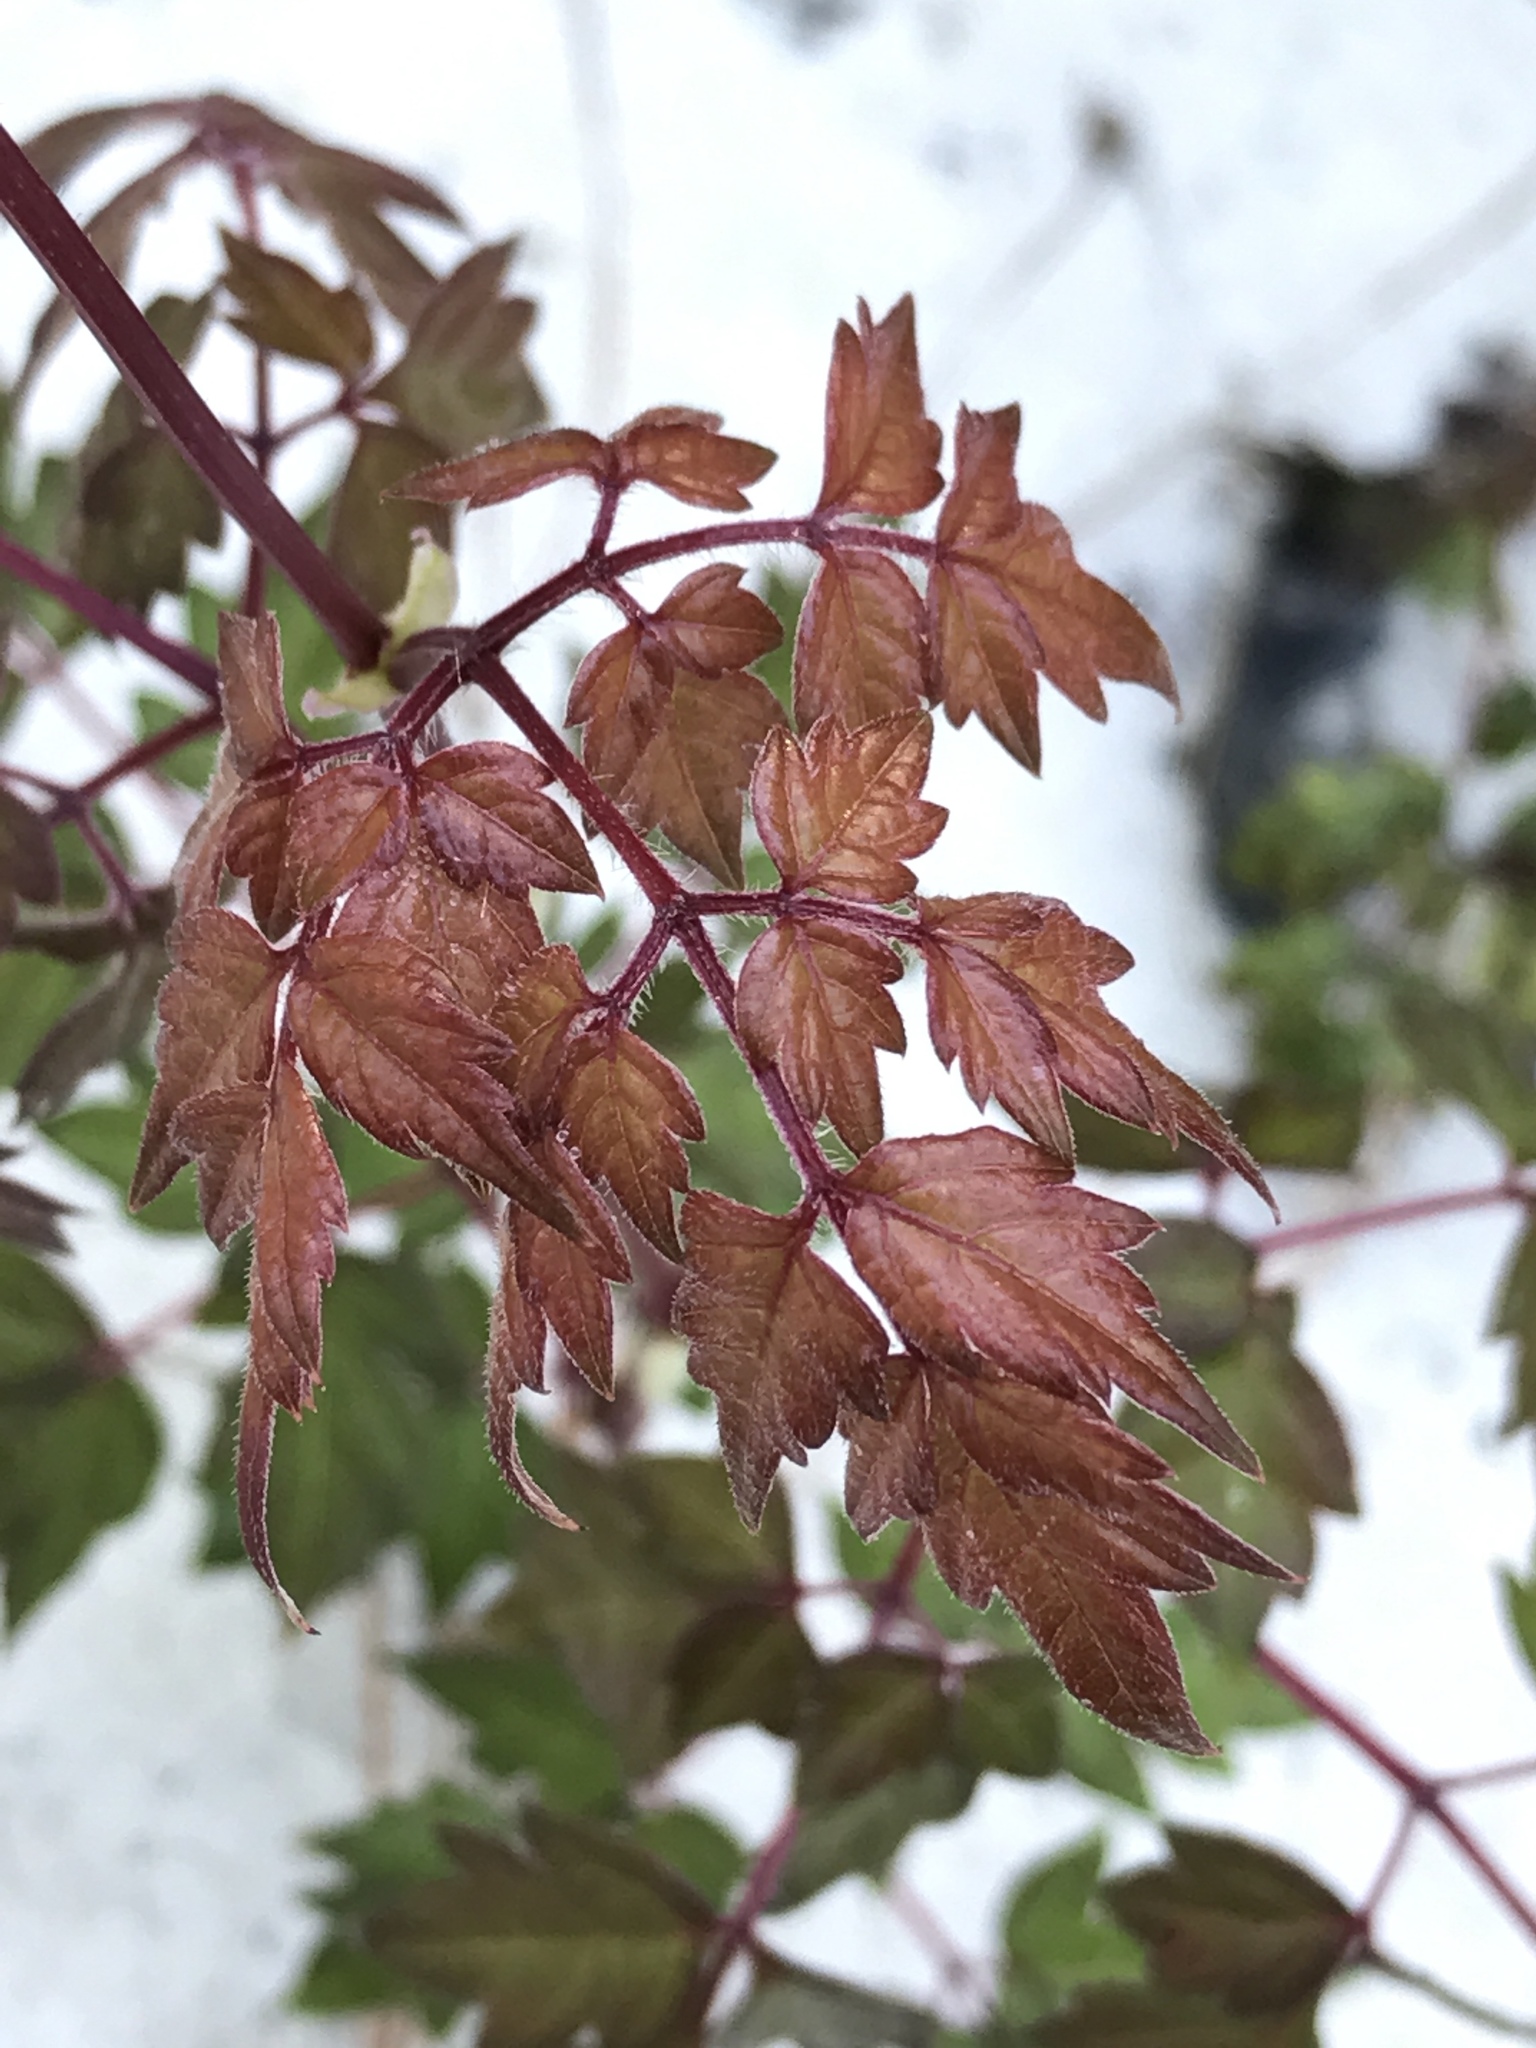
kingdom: Plantae
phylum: Tracheophyta
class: Magnoliopsida
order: Vitales
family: Vitaceae
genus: Nekemias
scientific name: Nekemias arborea
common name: Peppervine
